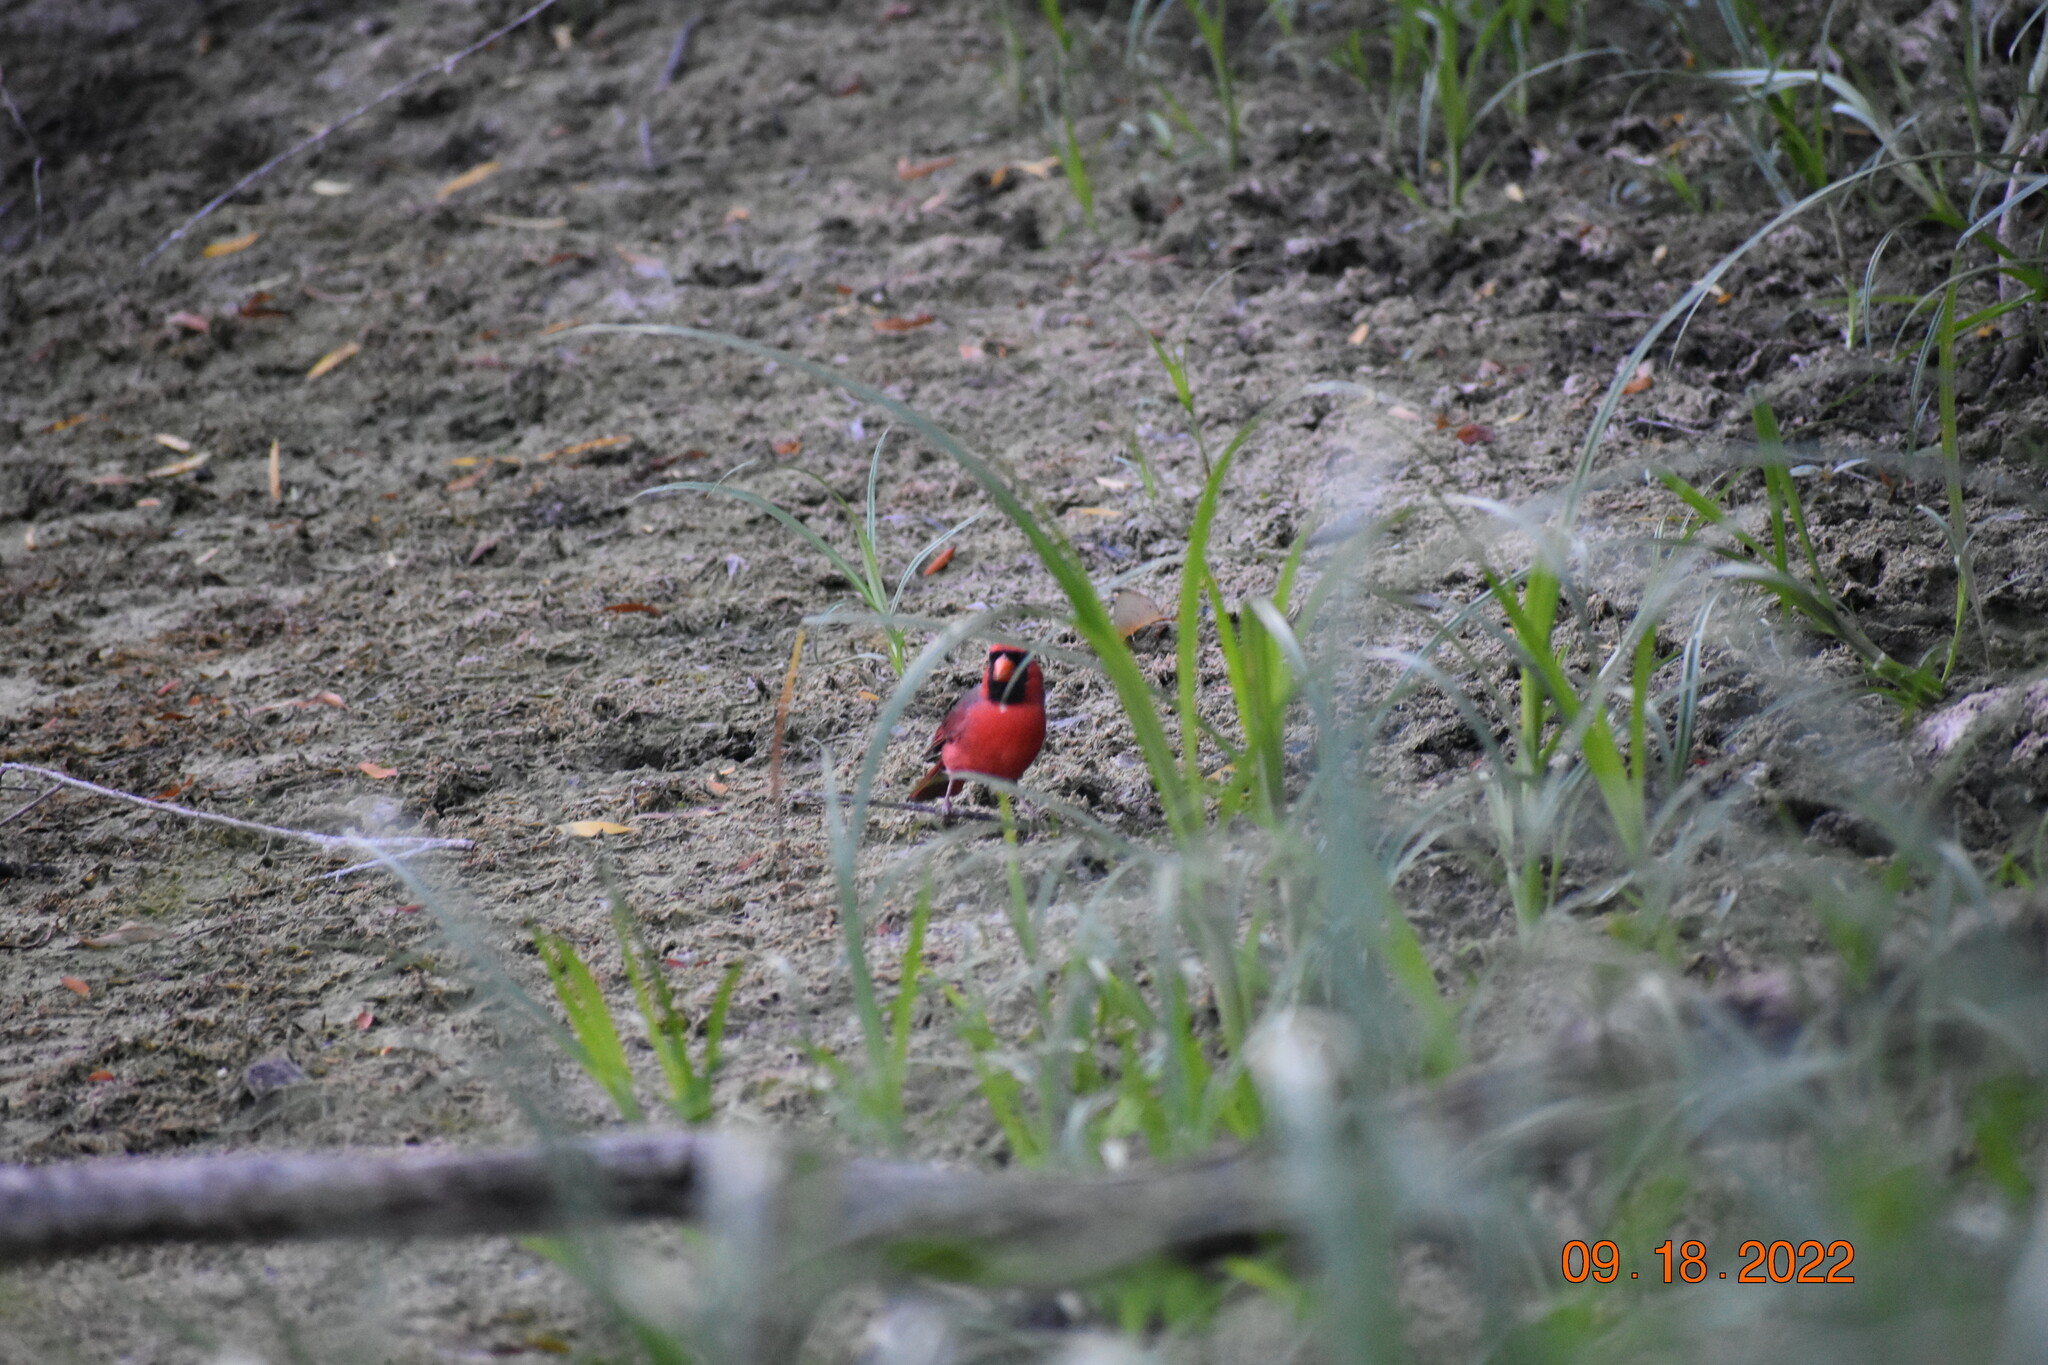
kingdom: Animalia
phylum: Chordata
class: Aves
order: Passeriformes
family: Cardinalidae
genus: Cardinalis
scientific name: Cardinalis cardinalis
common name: Northern cardinal
